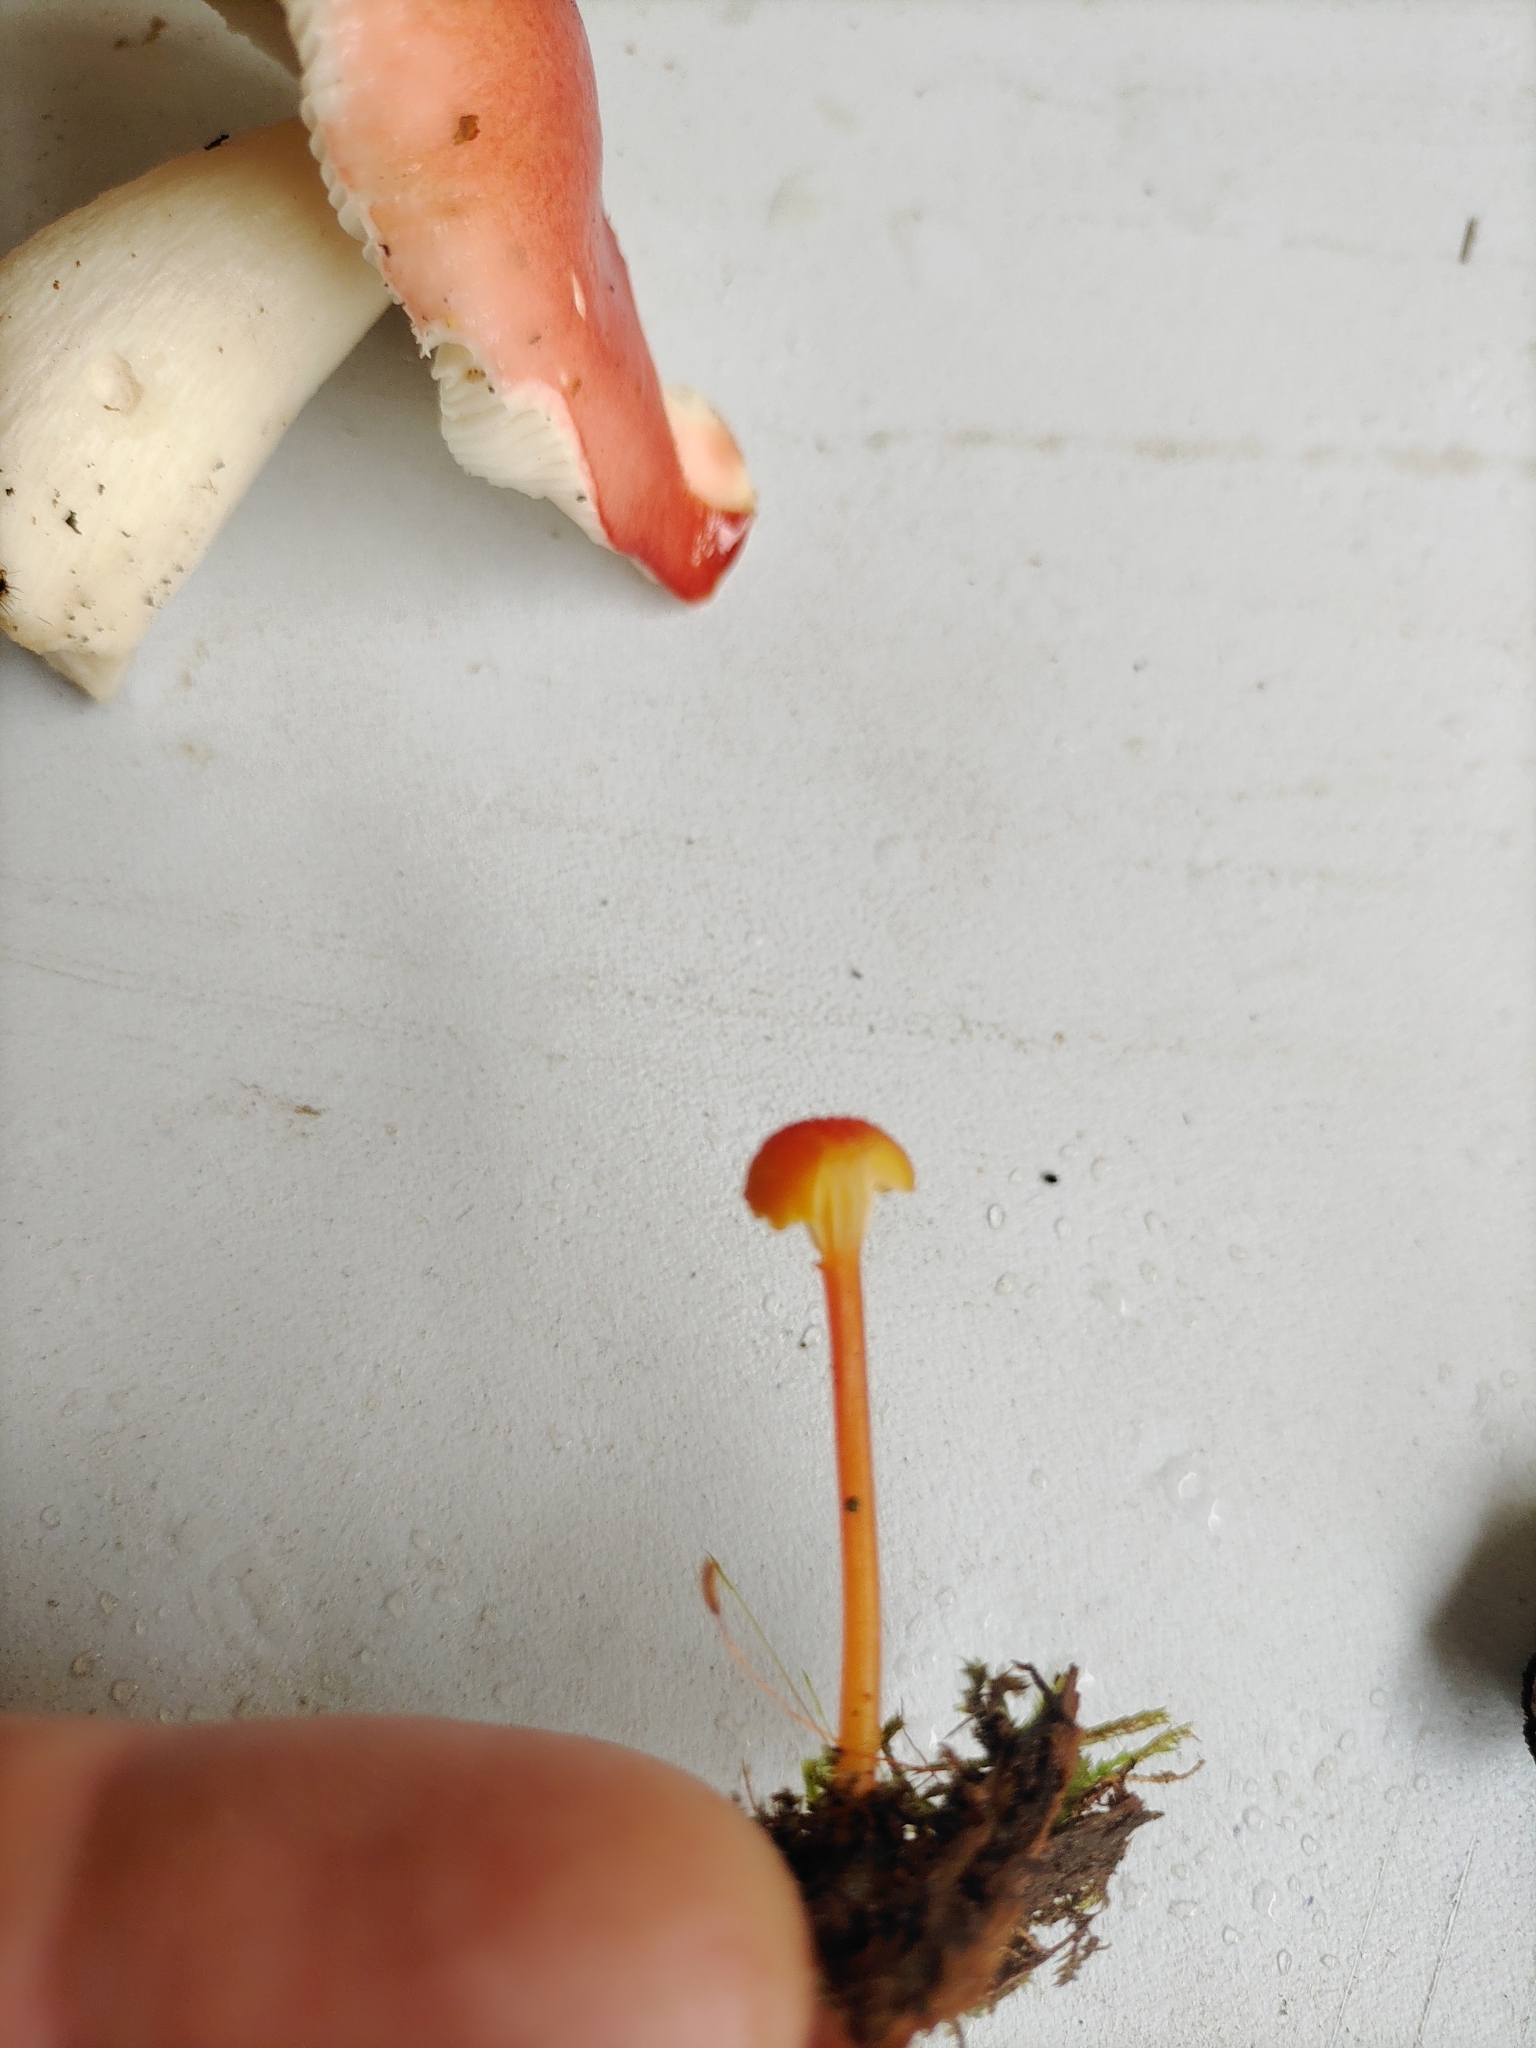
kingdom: Fungi
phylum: Basidiomycota
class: Agaricomycetes
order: Agaricales
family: Hygrophoraceae
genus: Hygrocybe
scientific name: Hygrocybe cantharellus
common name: Goblet waxcap
